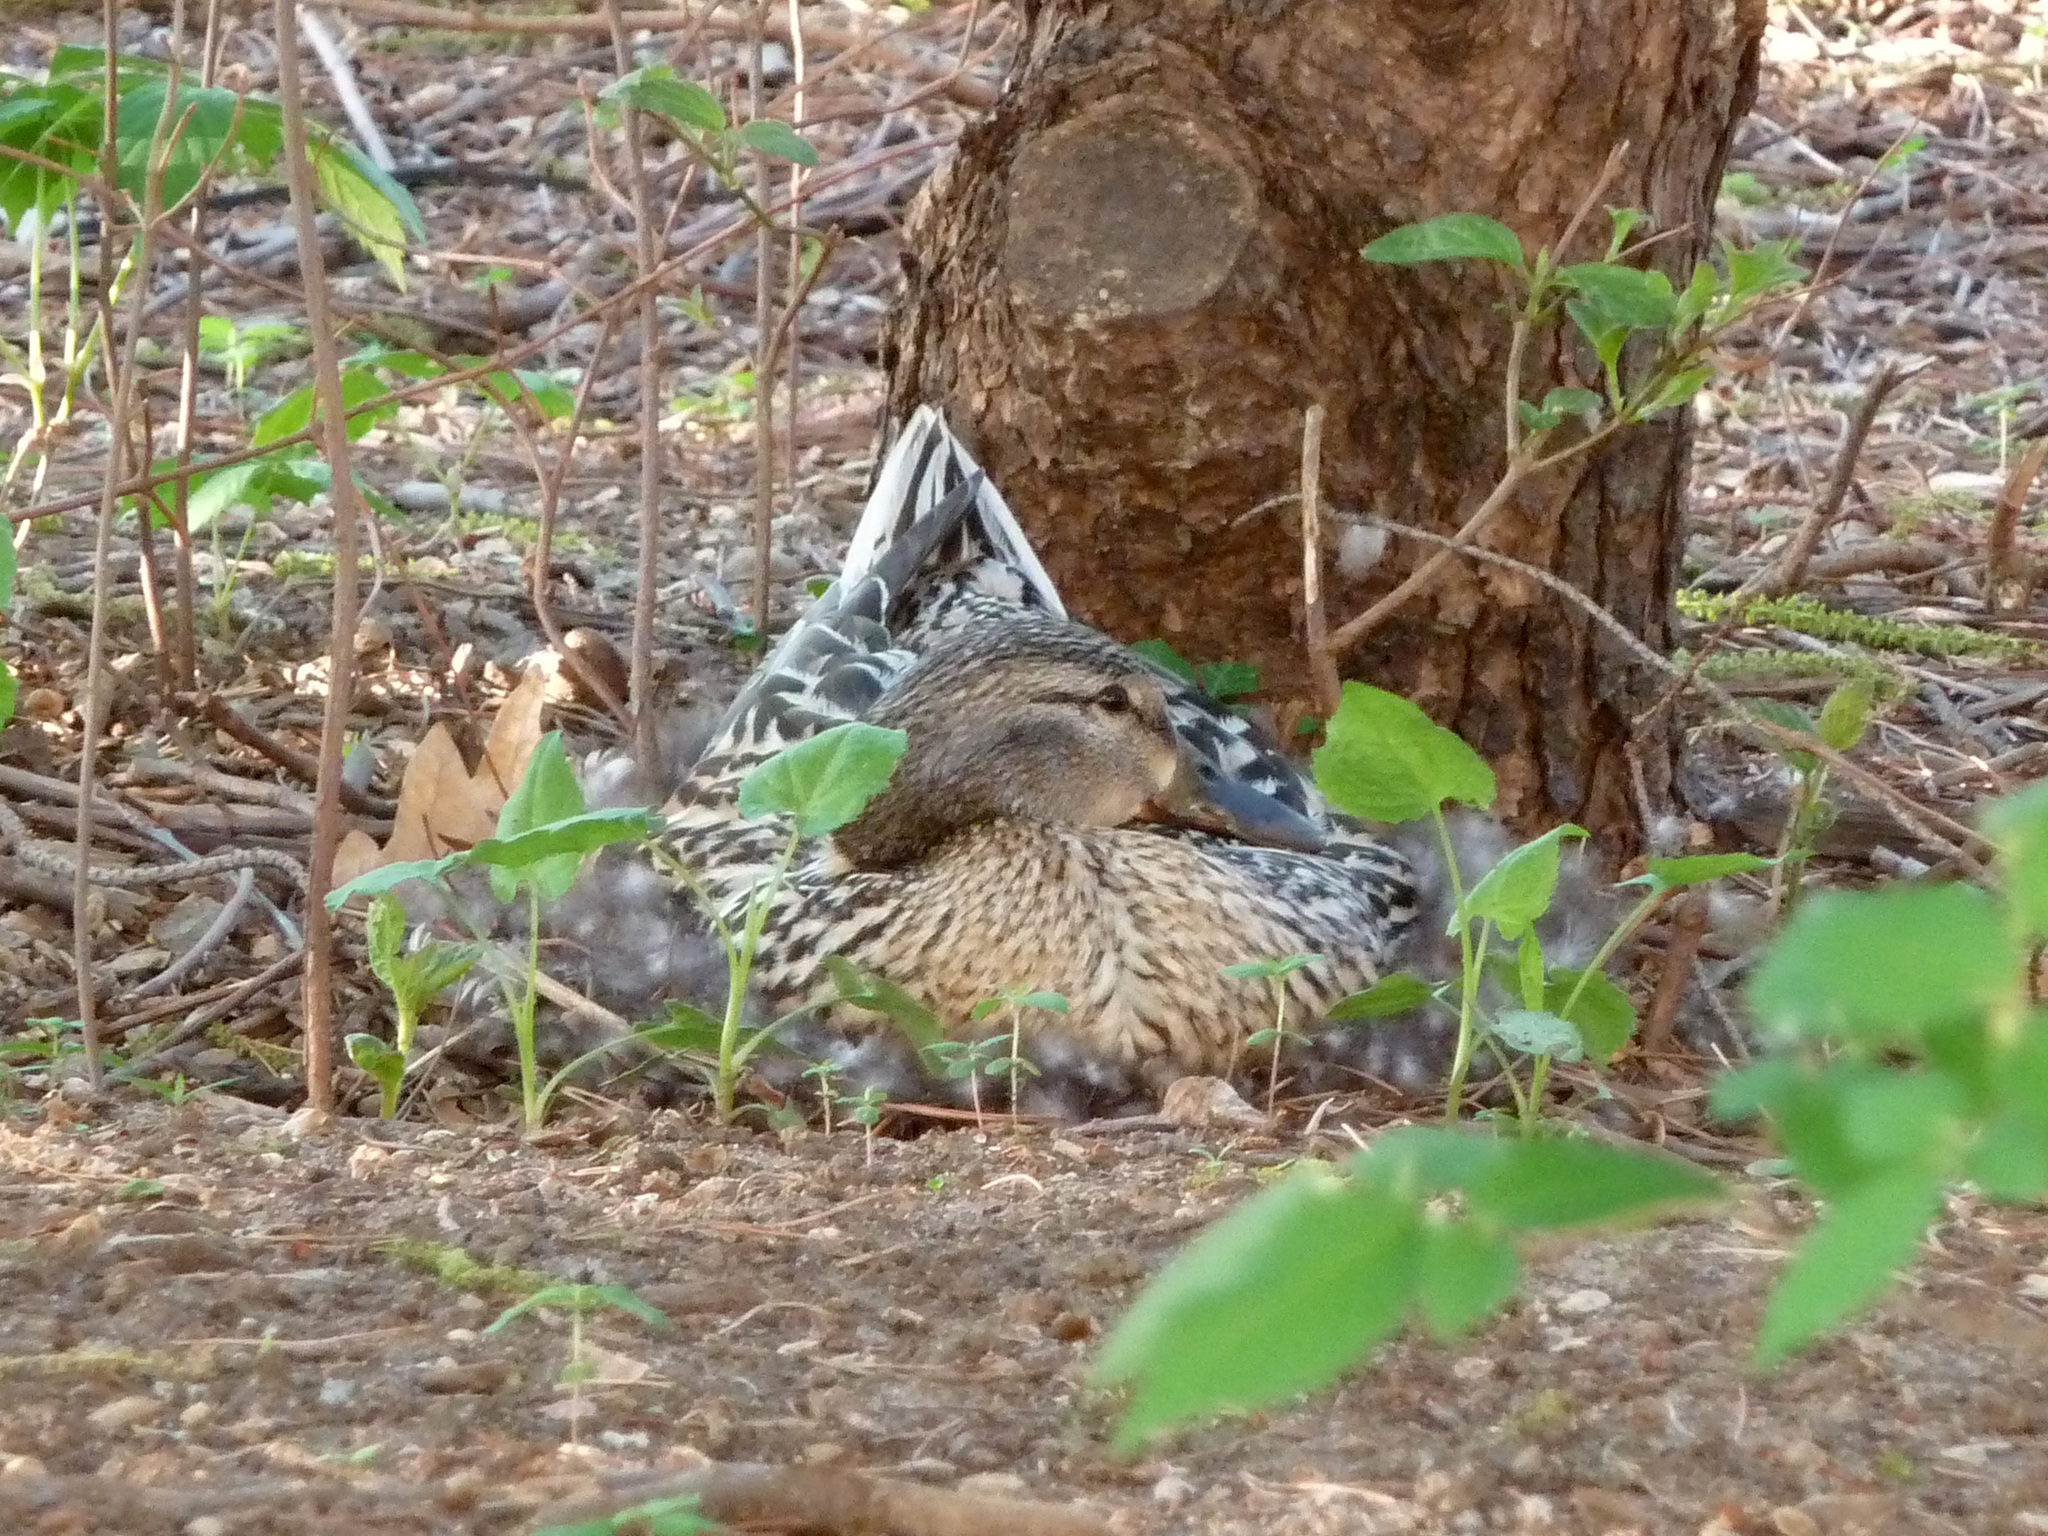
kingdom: Animalia
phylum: Chordata
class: Aves
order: Anseriformes
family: Anatidae
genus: Anas
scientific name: Anas platyrhynchos
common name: Mallard
